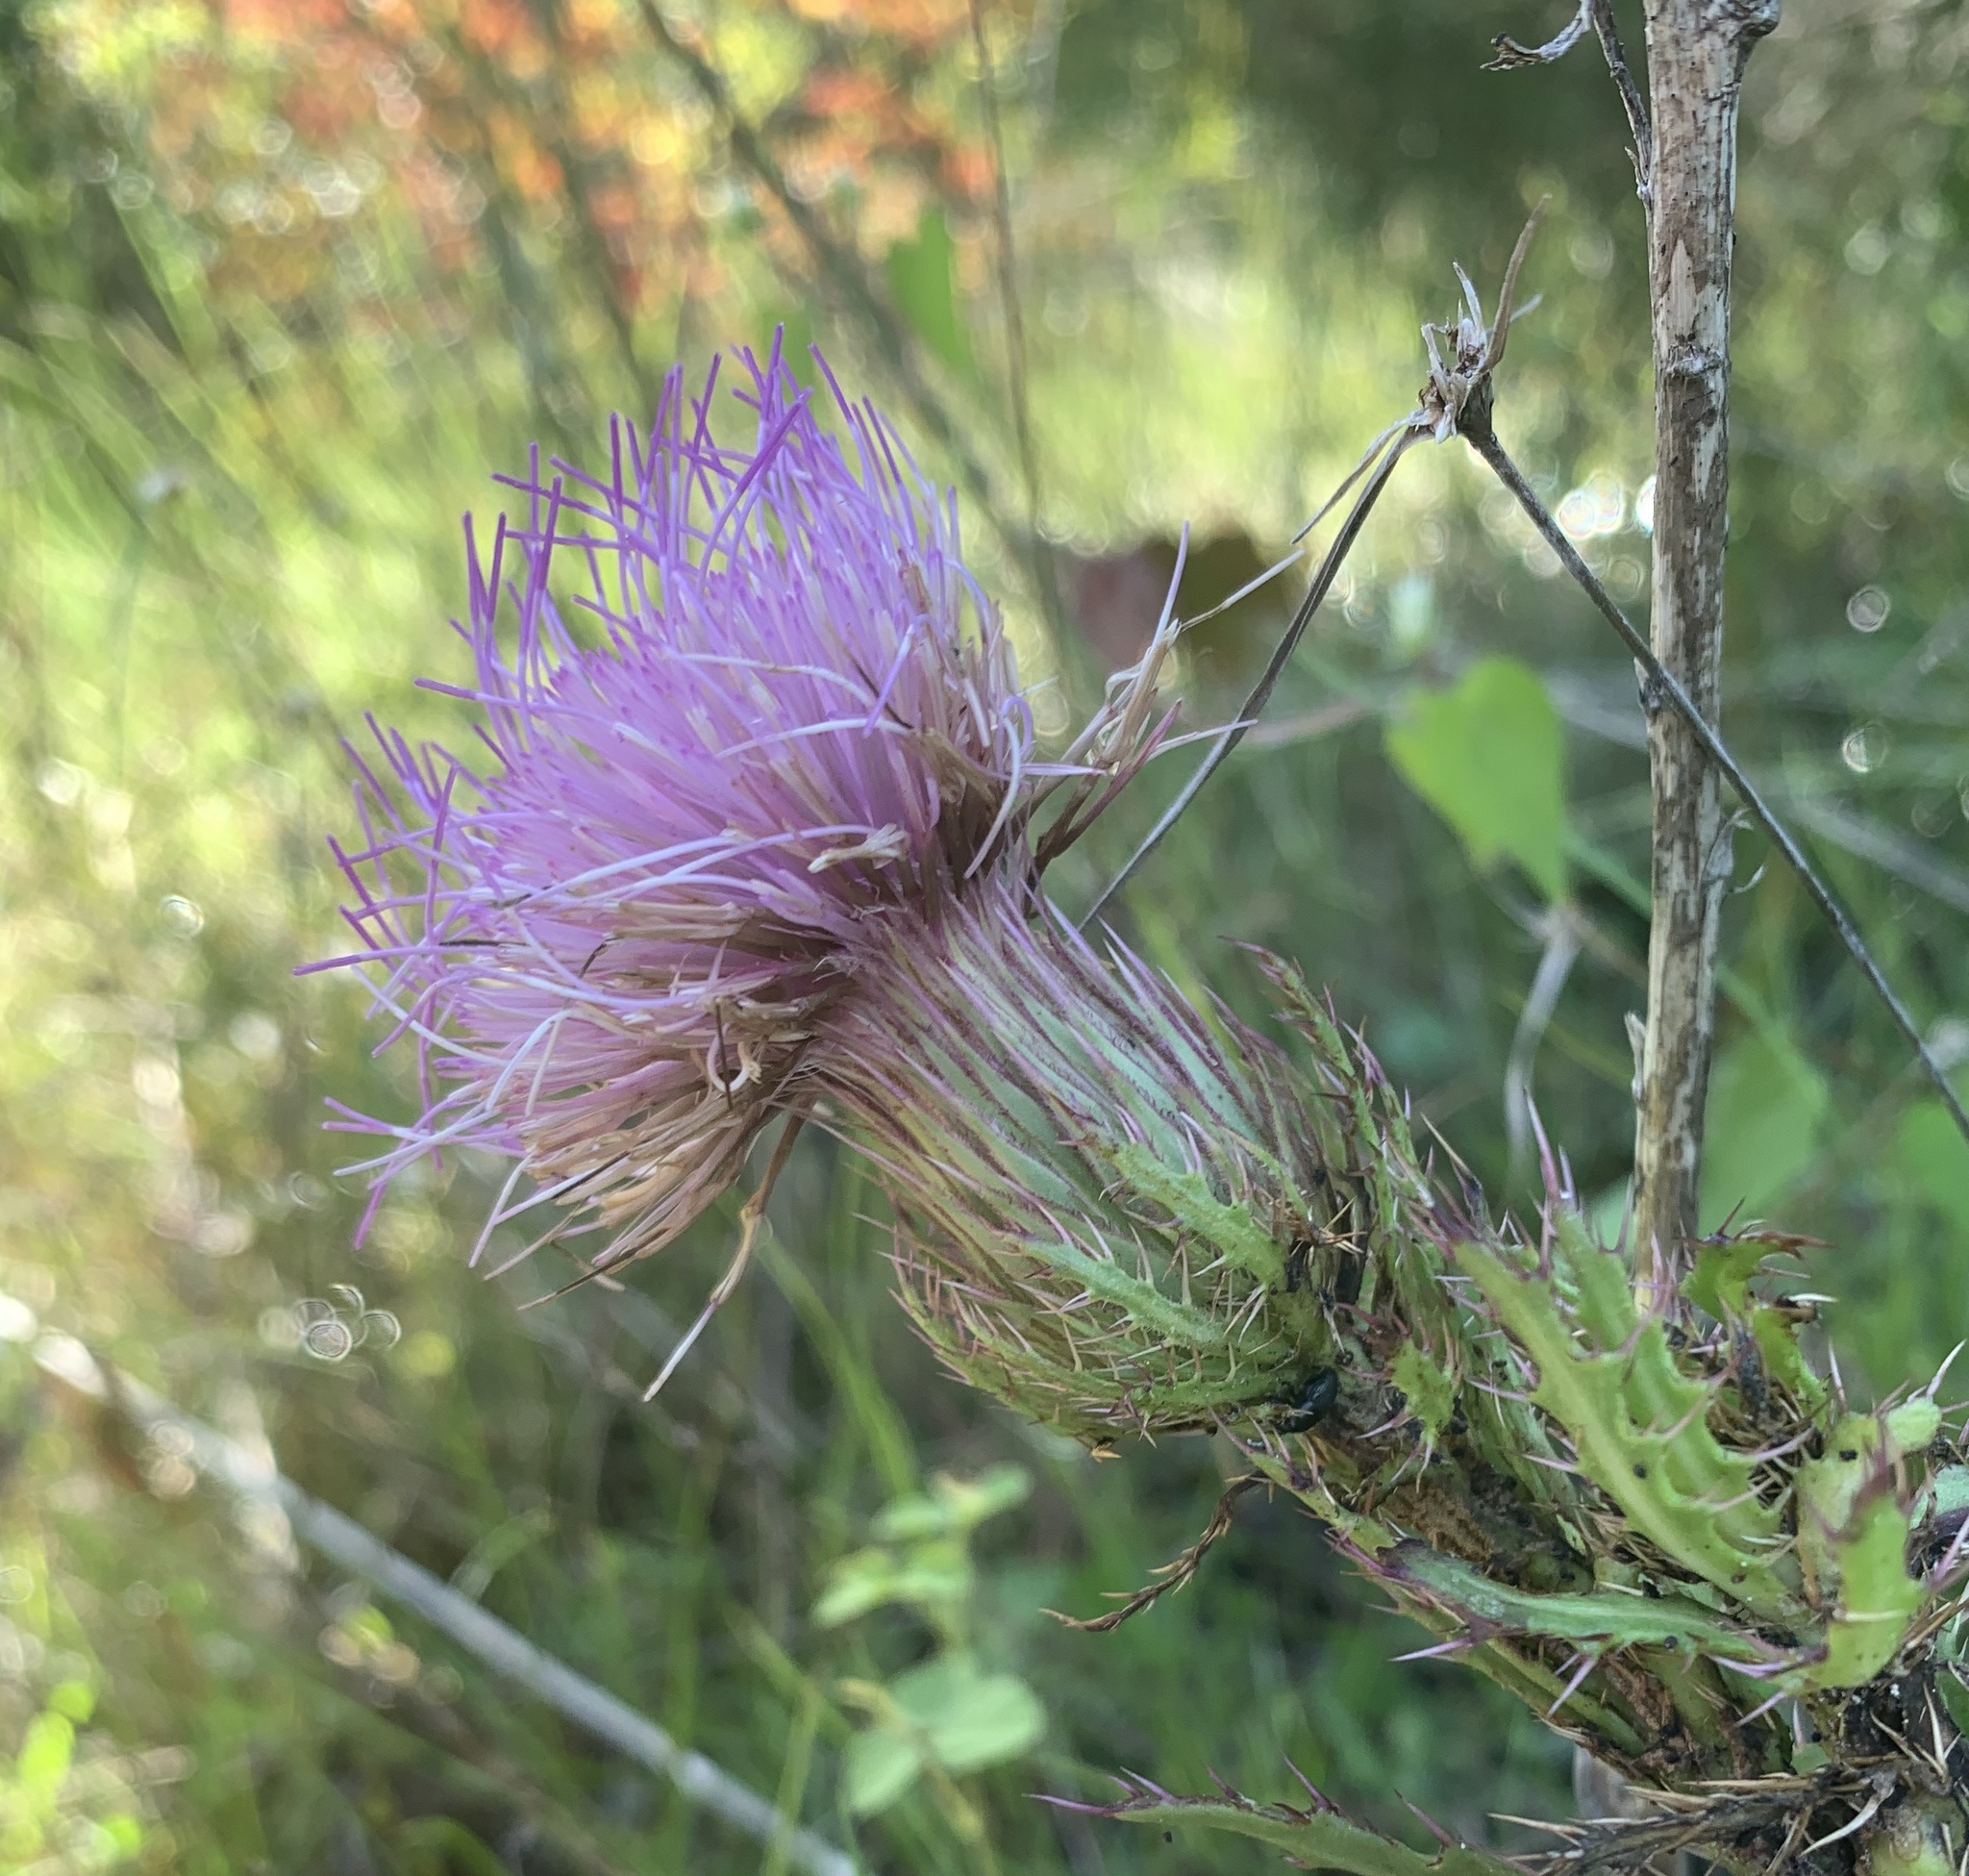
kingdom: Plantae
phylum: Tracheophyta
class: Magnoliopsida
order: Asterales
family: Asteraceae
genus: Cirsium
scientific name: Cirsium horridulum
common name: Bristly thistle
